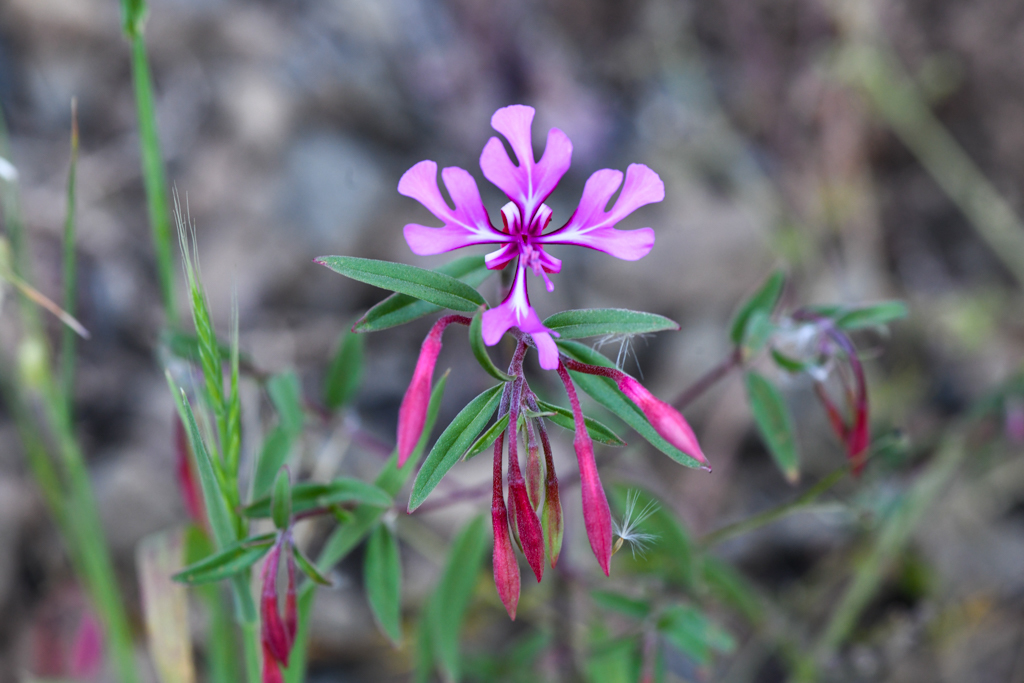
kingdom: Plantae
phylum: Tracheophyta
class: Magnoliopsida
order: Myrtales
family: Onagraceae
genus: Clarkia
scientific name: Clarkia concinna
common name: Red-ribbons
